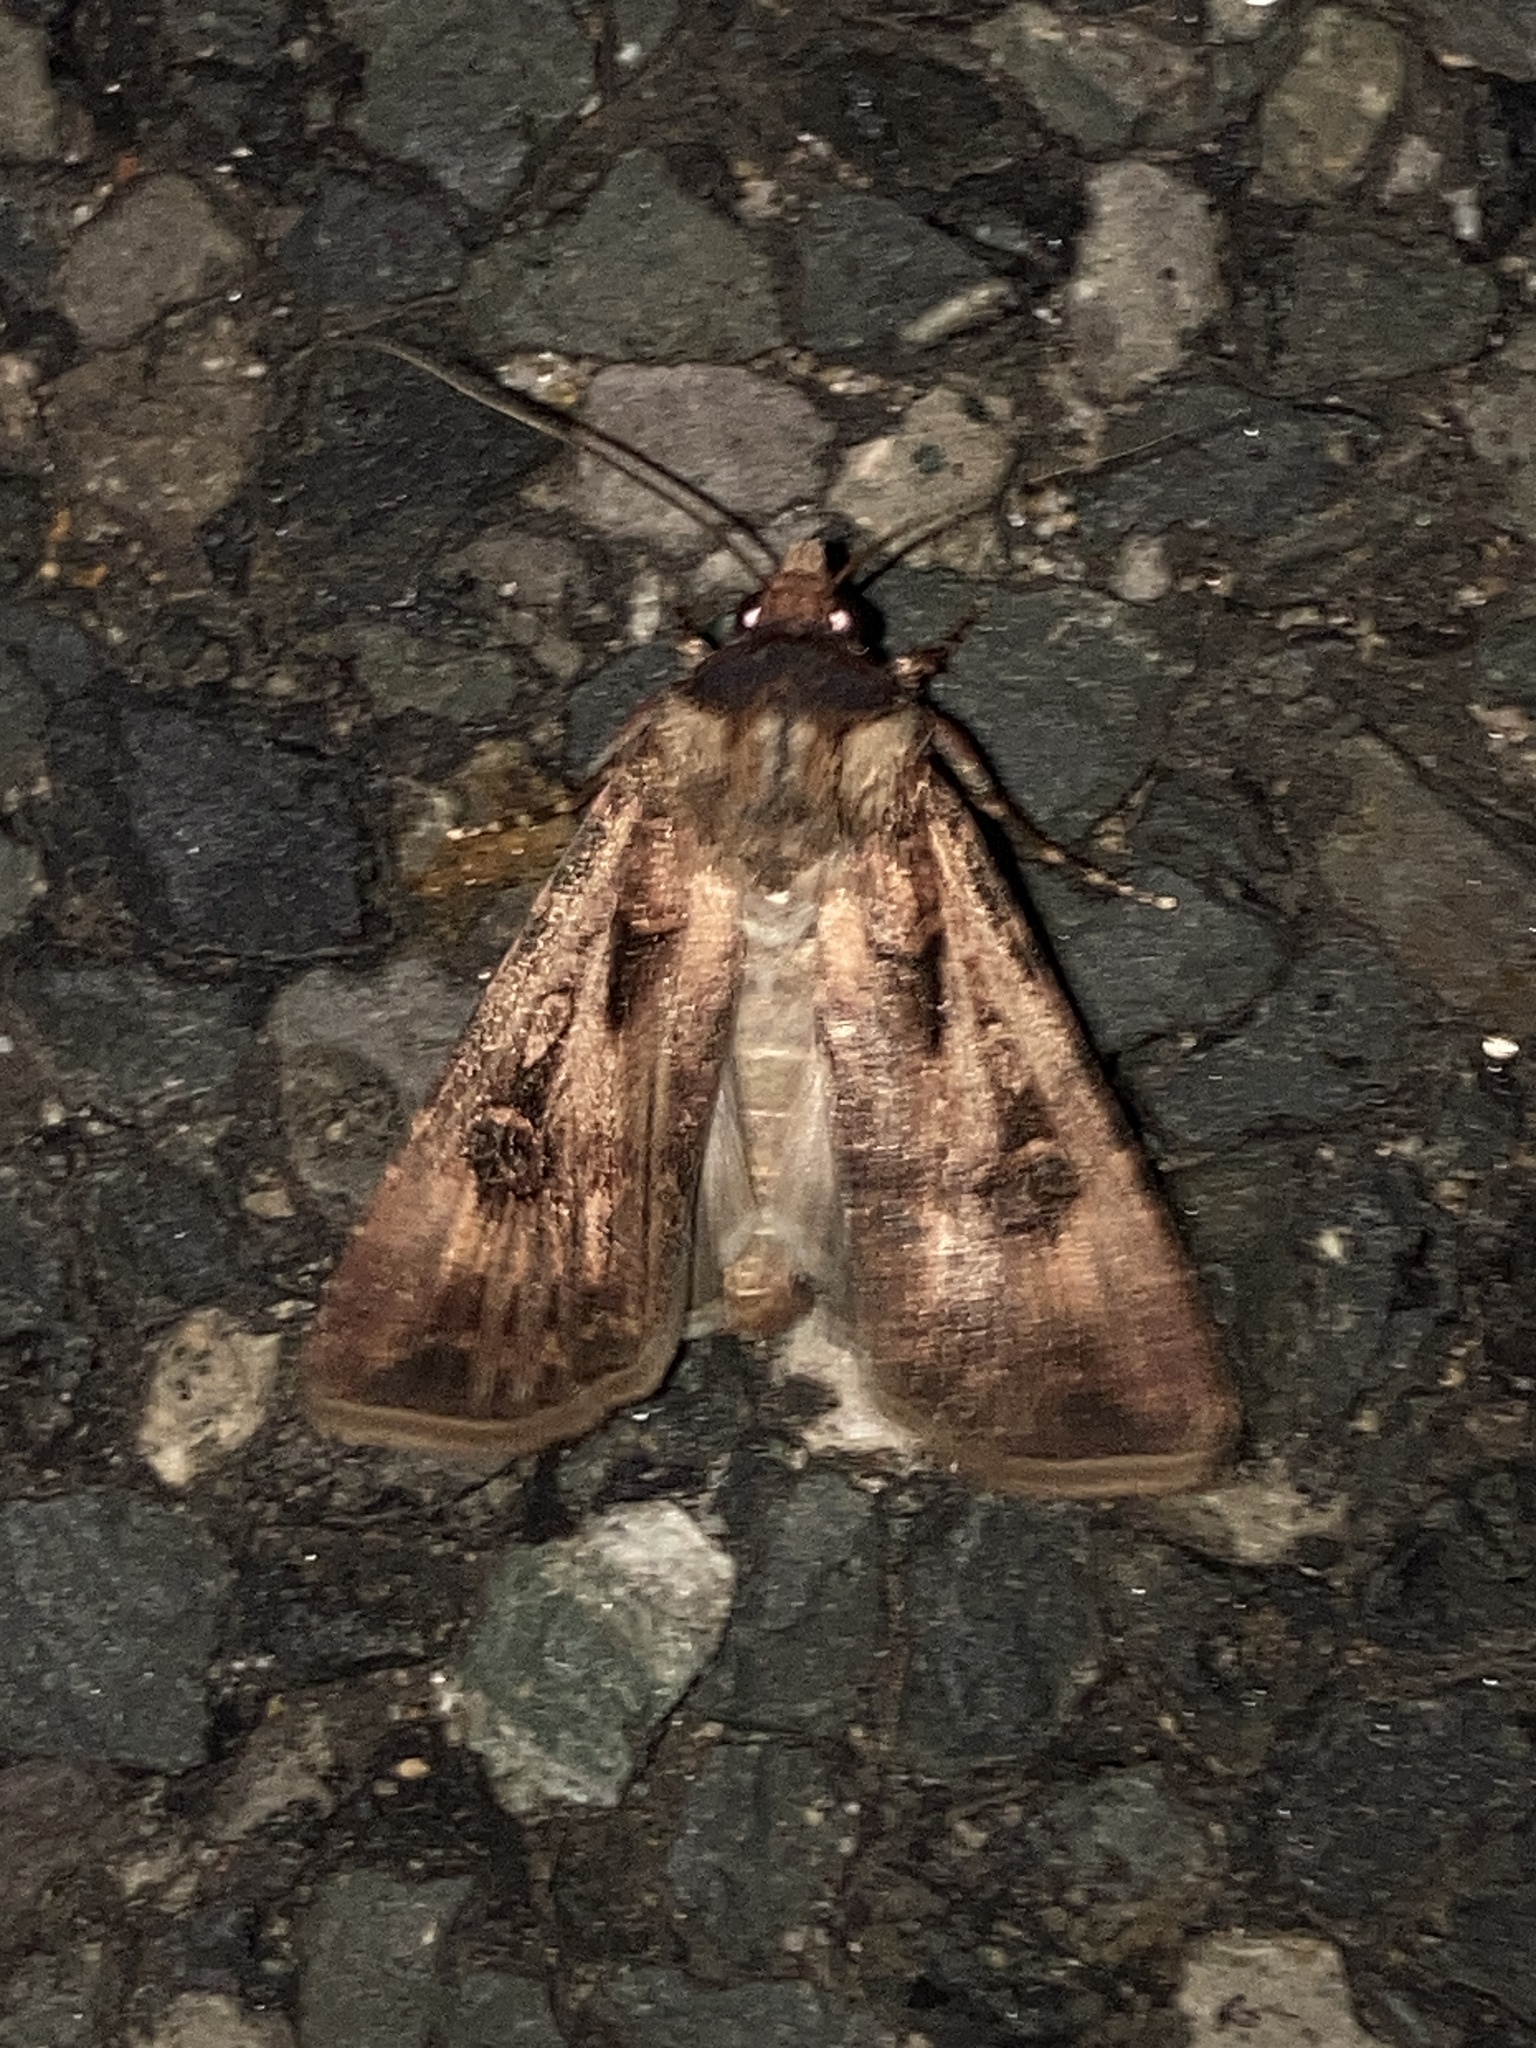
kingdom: Animalia
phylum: Arthropoda
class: Insecta
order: Lepidoptera
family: Noctuidae
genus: Agrotis
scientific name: Agrotis munda
